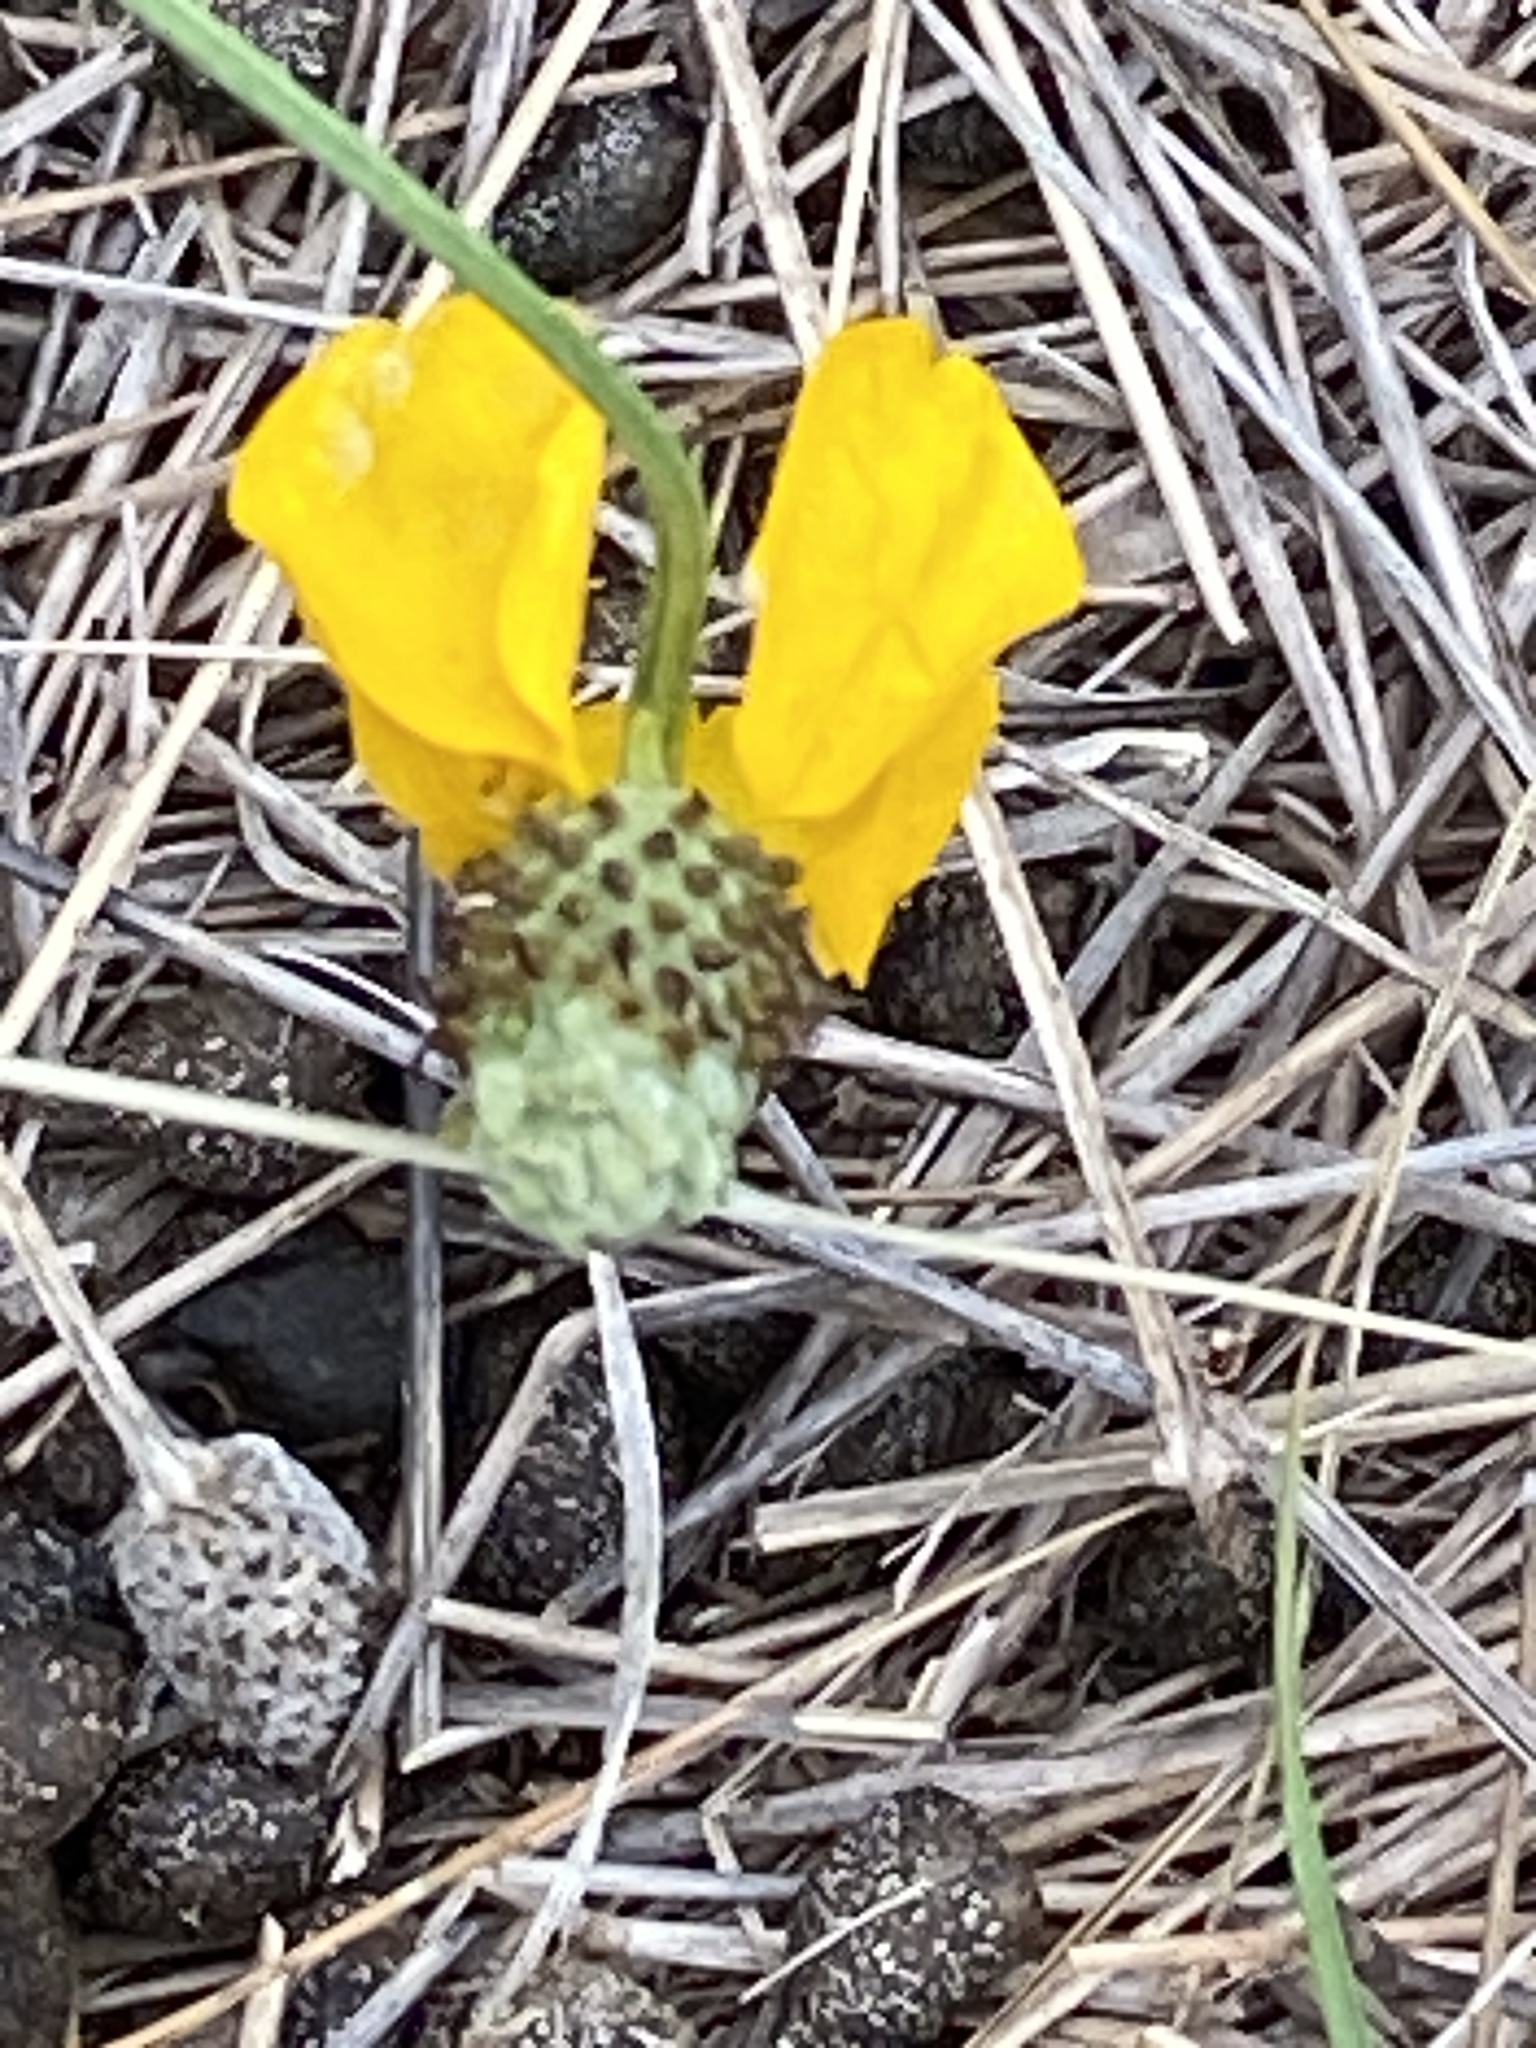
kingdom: Plantae
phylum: Tracheophyta
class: Magnoliopsida
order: Asterales
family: Asteraceae
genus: Ratibida
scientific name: Ratibida columnifera
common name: Prairie coneflower
